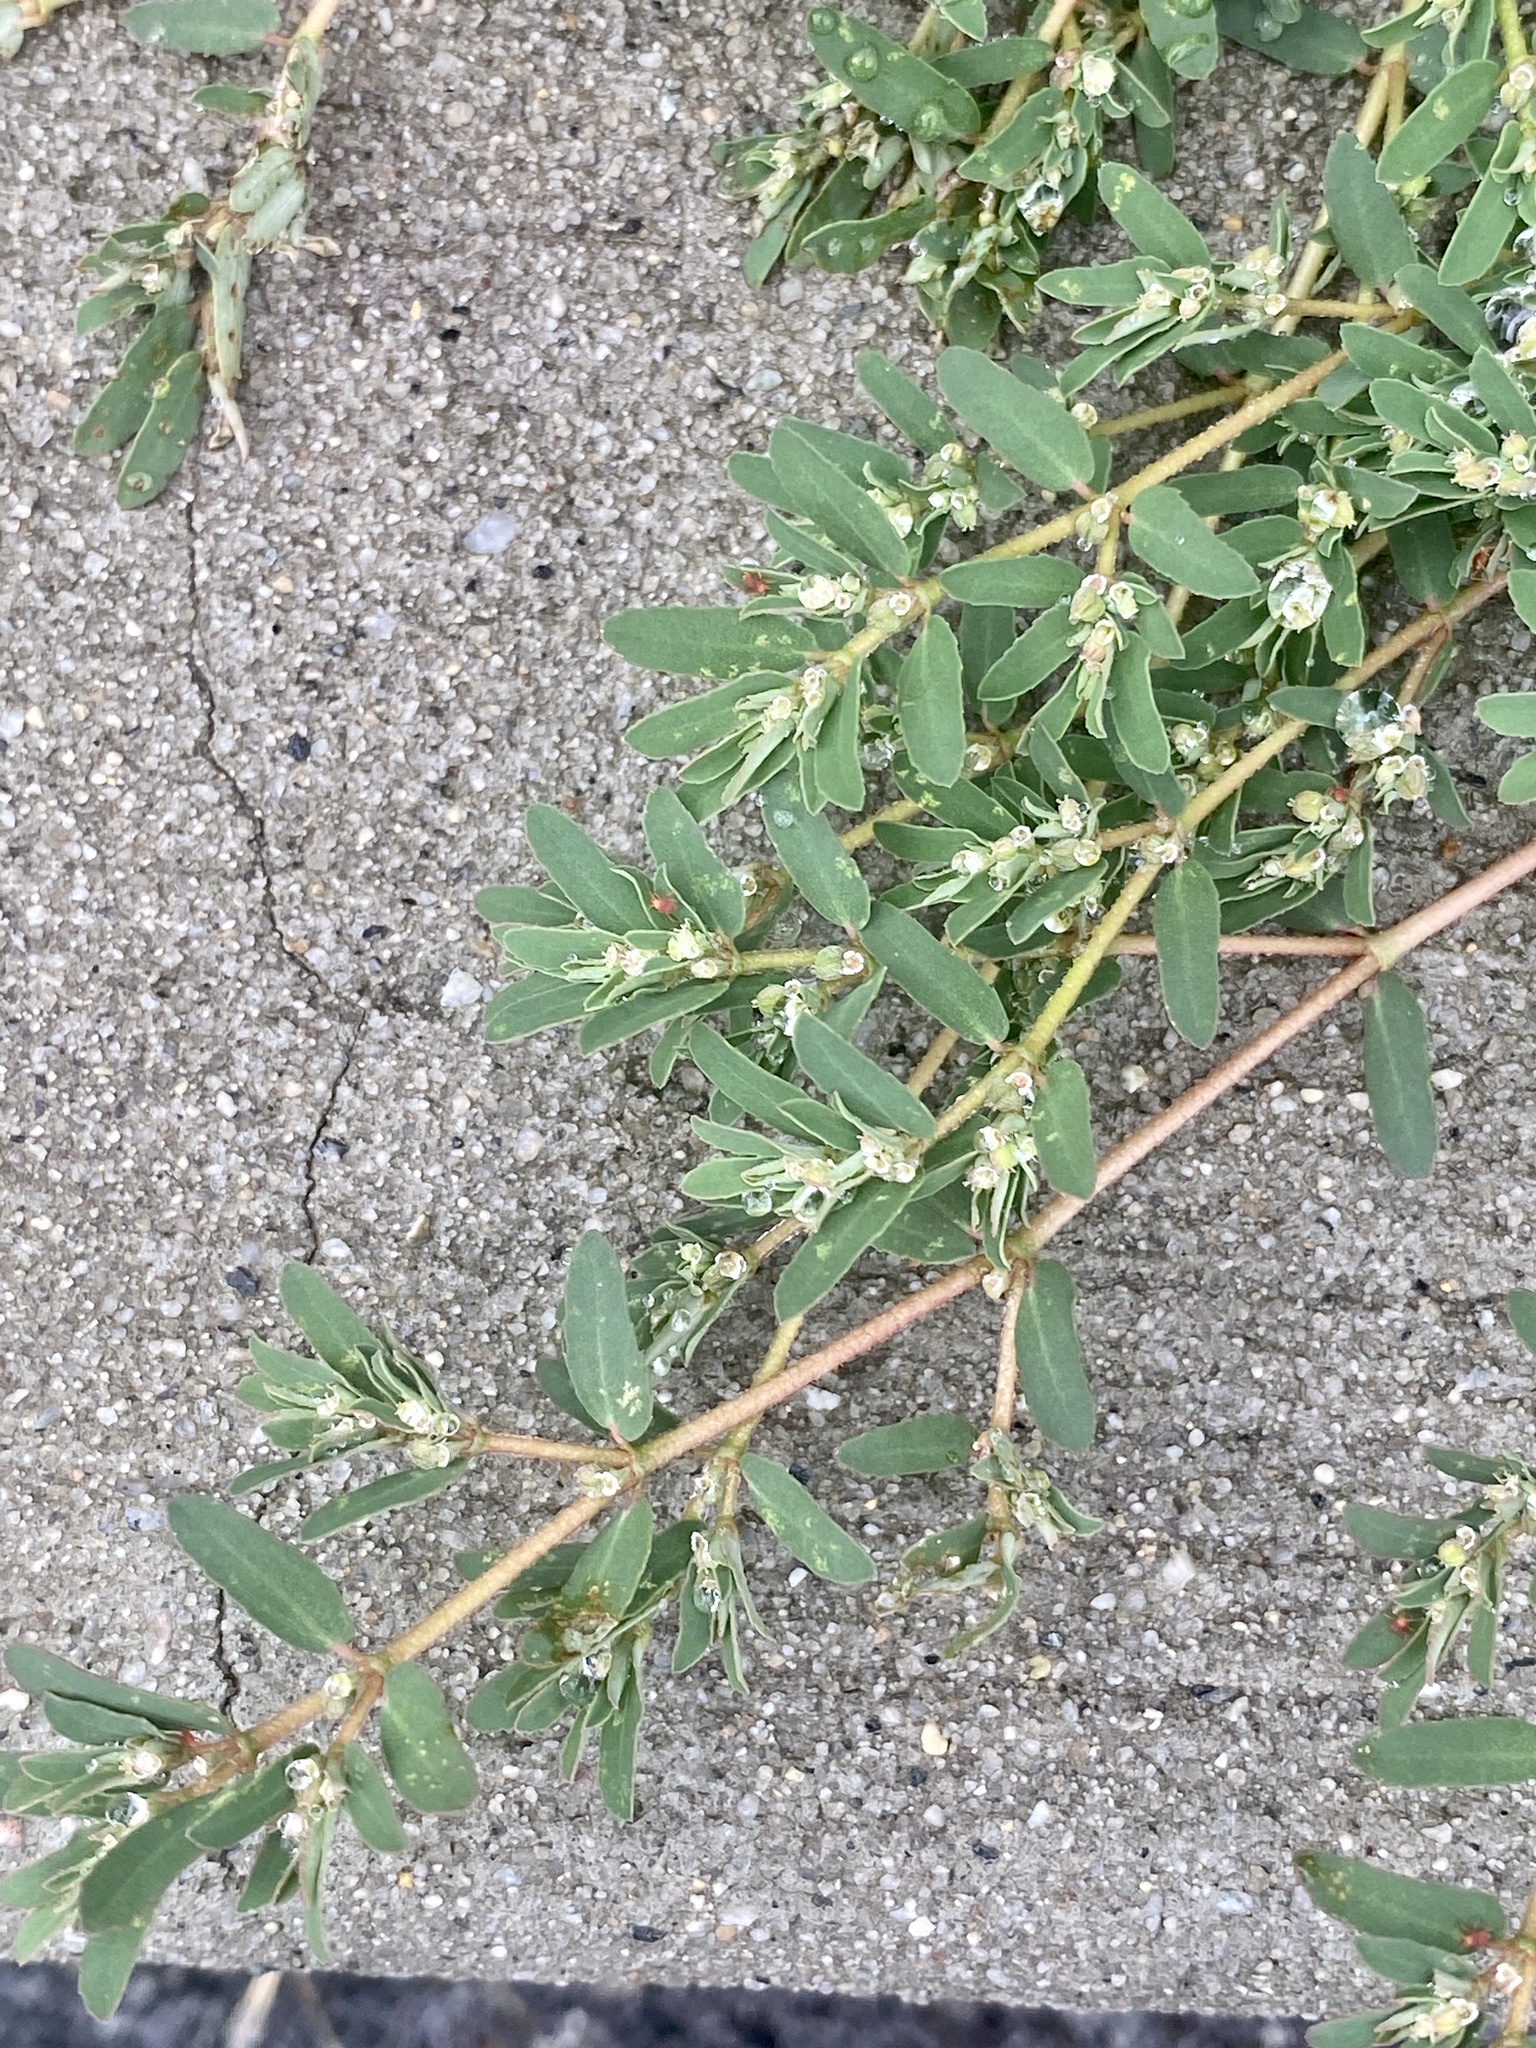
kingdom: Plantae
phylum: Tracheophyta
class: Magnoliopsida
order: Malpighiales
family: Euphorbiaceae
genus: Euphorbia
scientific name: Euphorbia maculata
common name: Spotted spurge
